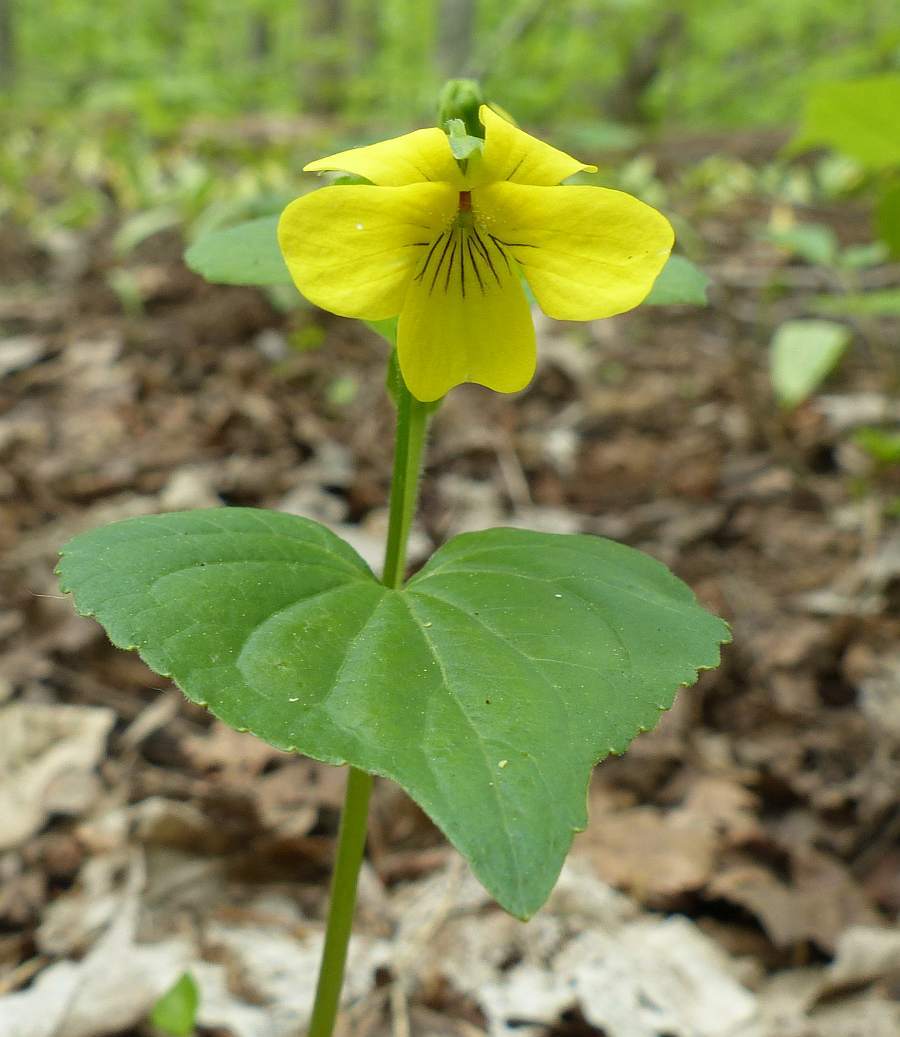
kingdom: Plantae
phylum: Tracheophyta
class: Magnoliopsida
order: Malpighiales
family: Violaceae
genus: Viola
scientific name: Viola eriocarpa
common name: Smooth yellow violet
